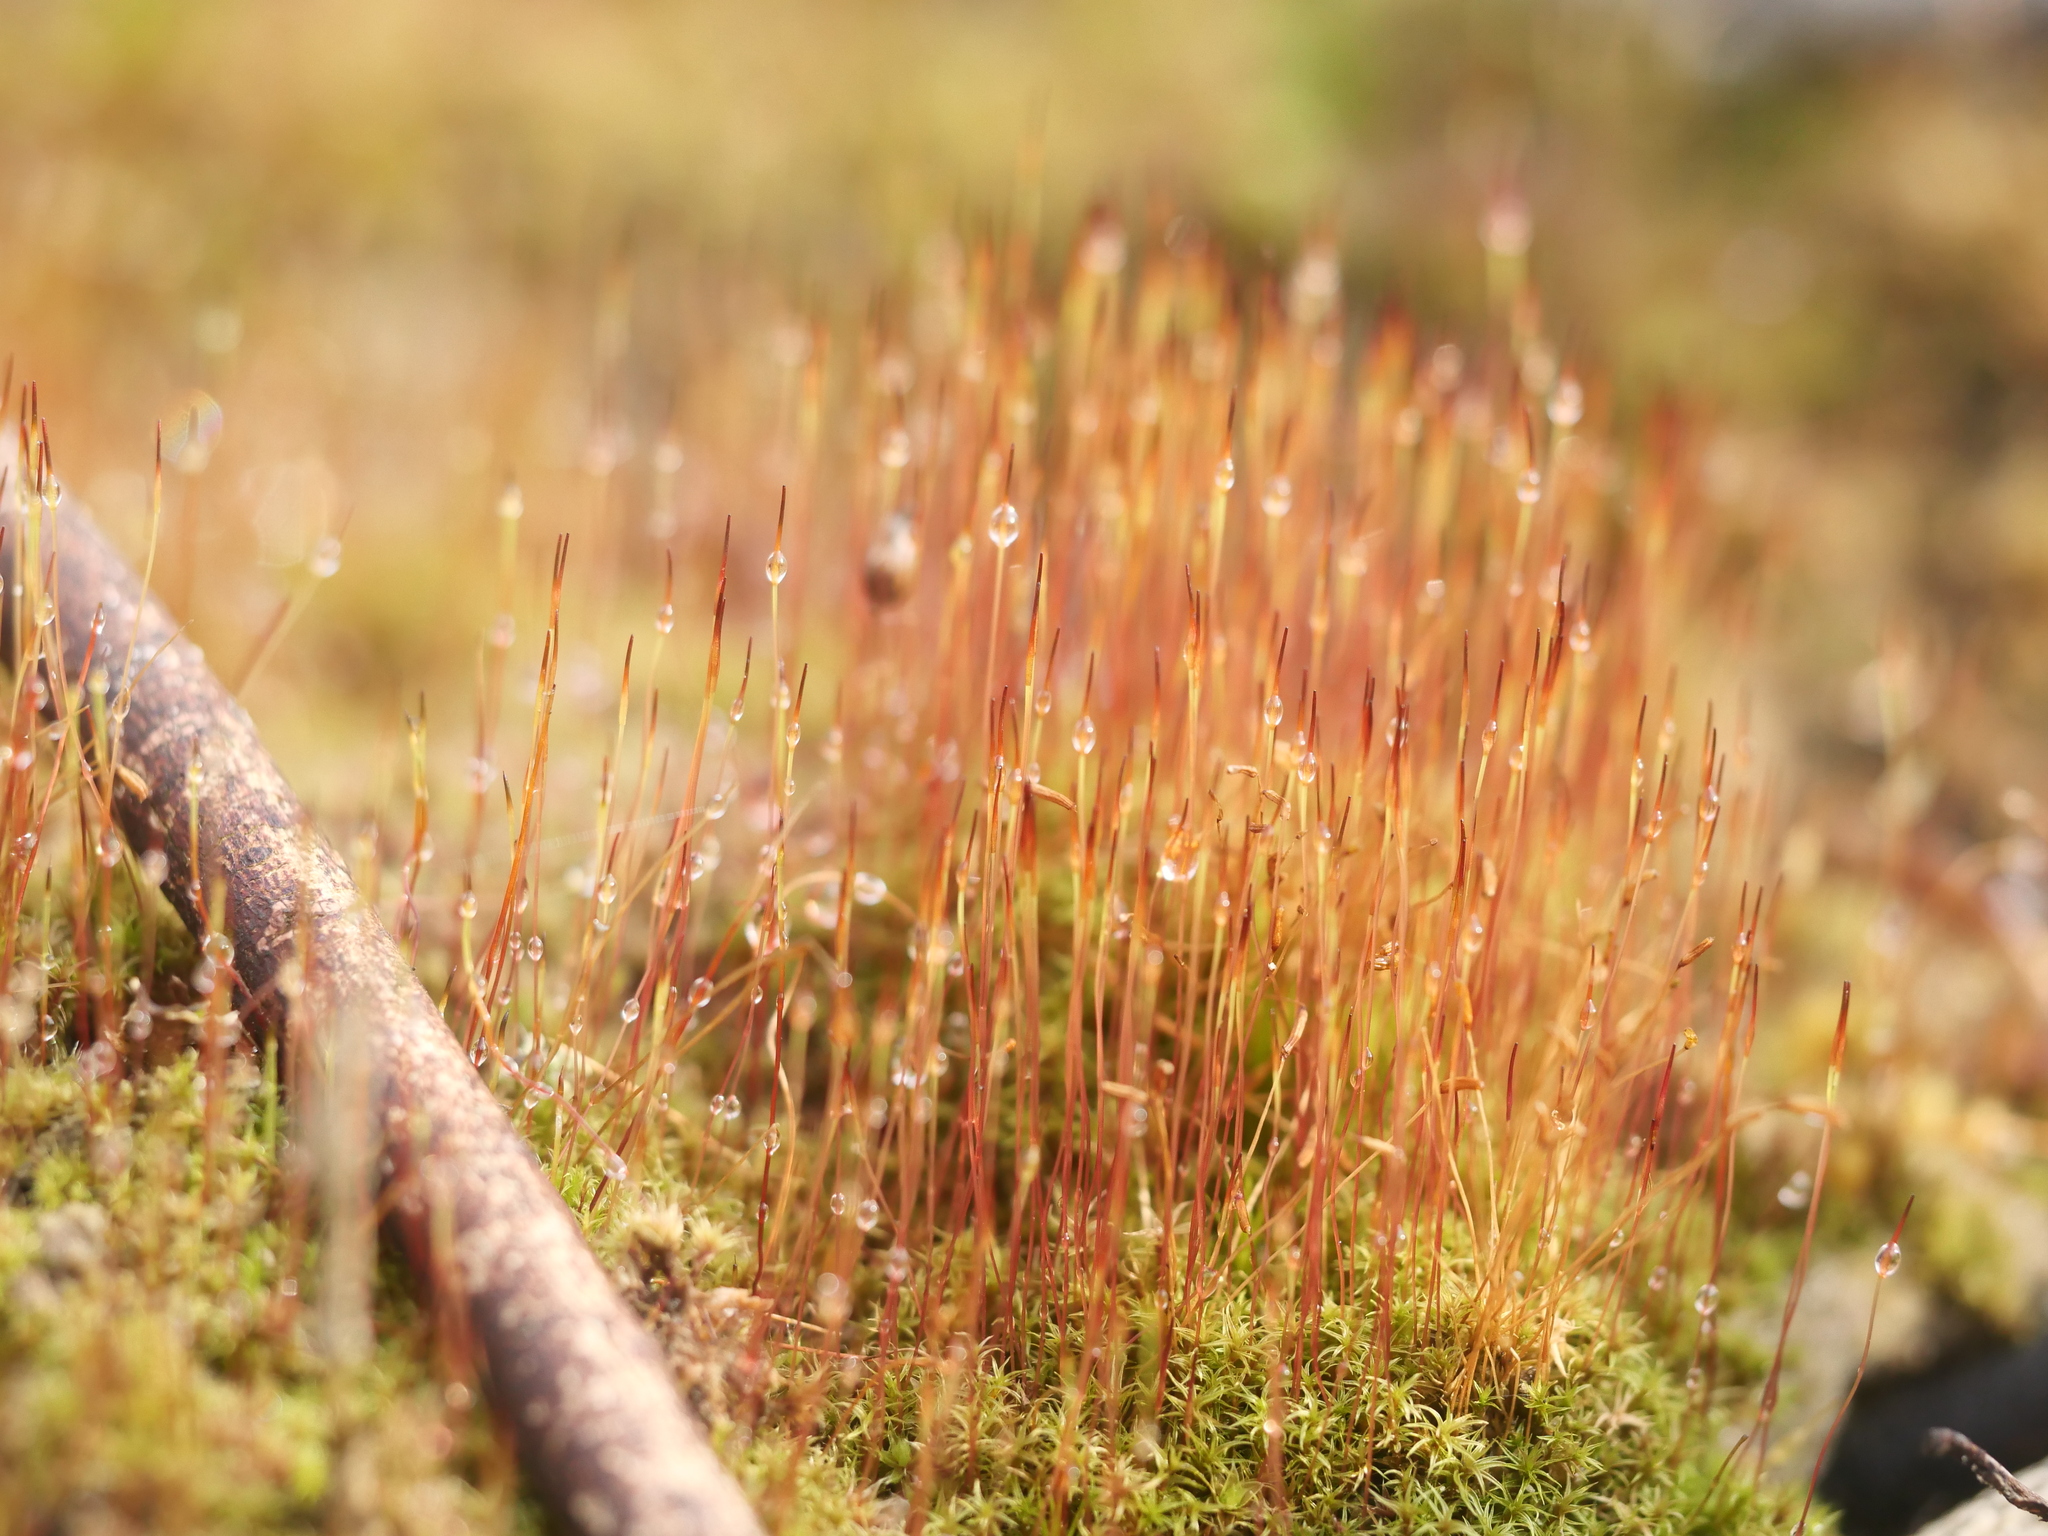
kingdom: Plantae
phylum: Bryophyta
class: Bryopsida
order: Dicranales
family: Ditrichaceae
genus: Ceratodon
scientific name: Ceratodon purpureus
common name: Redshank
